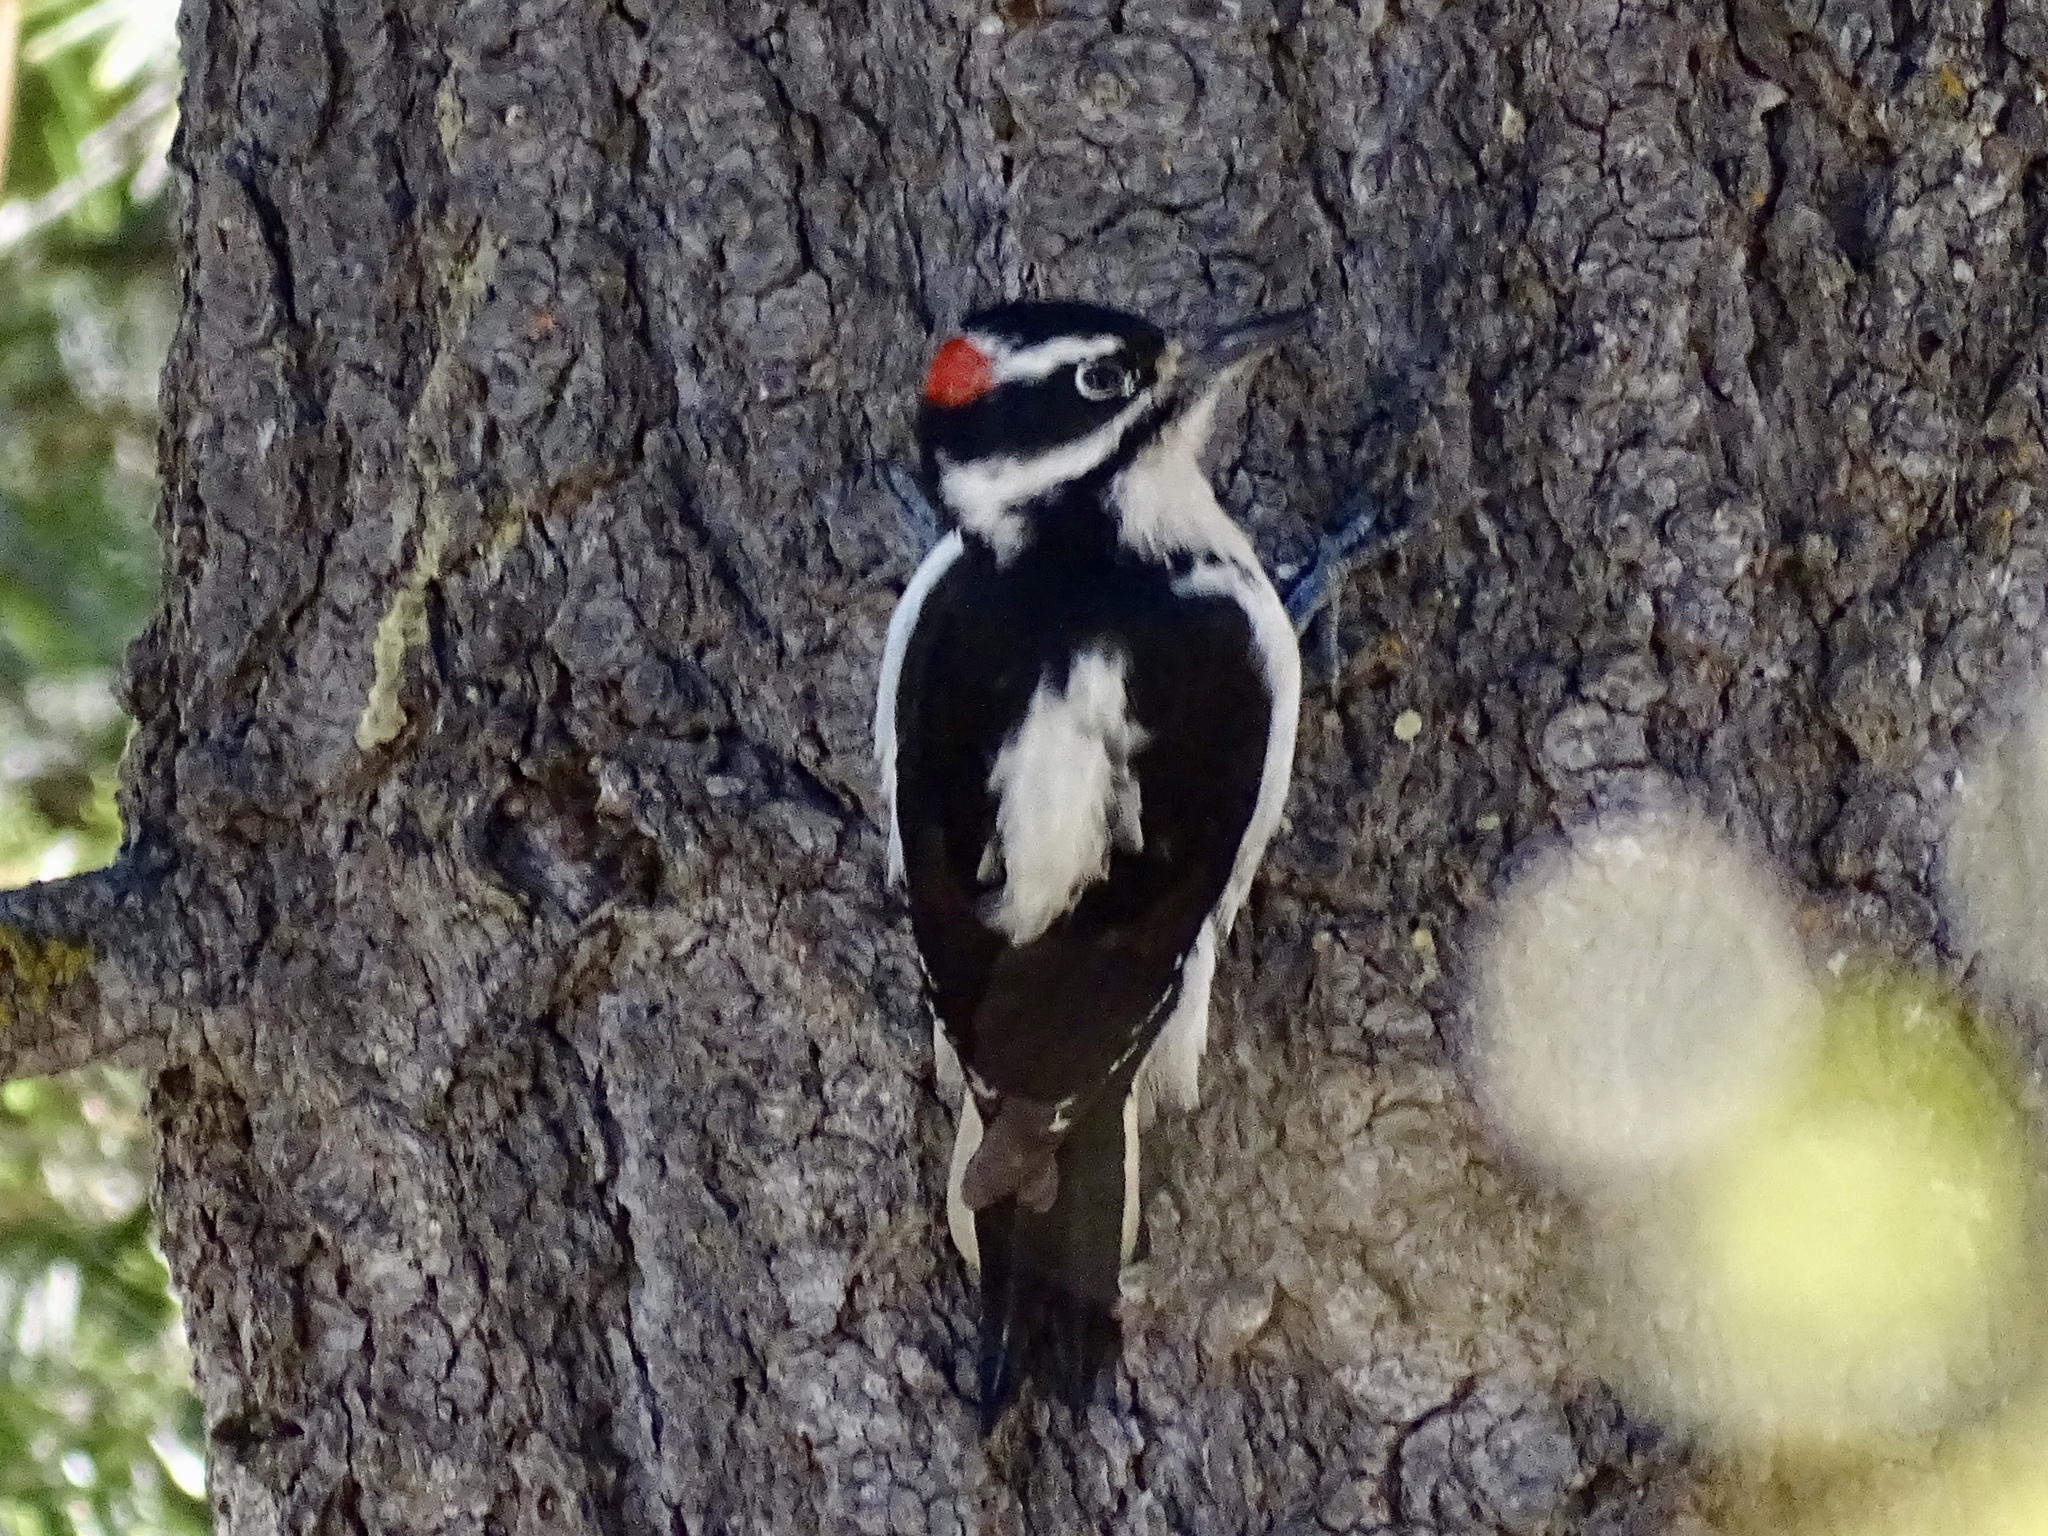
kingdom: Animalia
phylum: Chordata
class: Aves
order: Piciformes
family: Picidae
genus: Leuconotopicus
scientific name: Leuconotopicus villosus
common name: Hairy woodpecker
